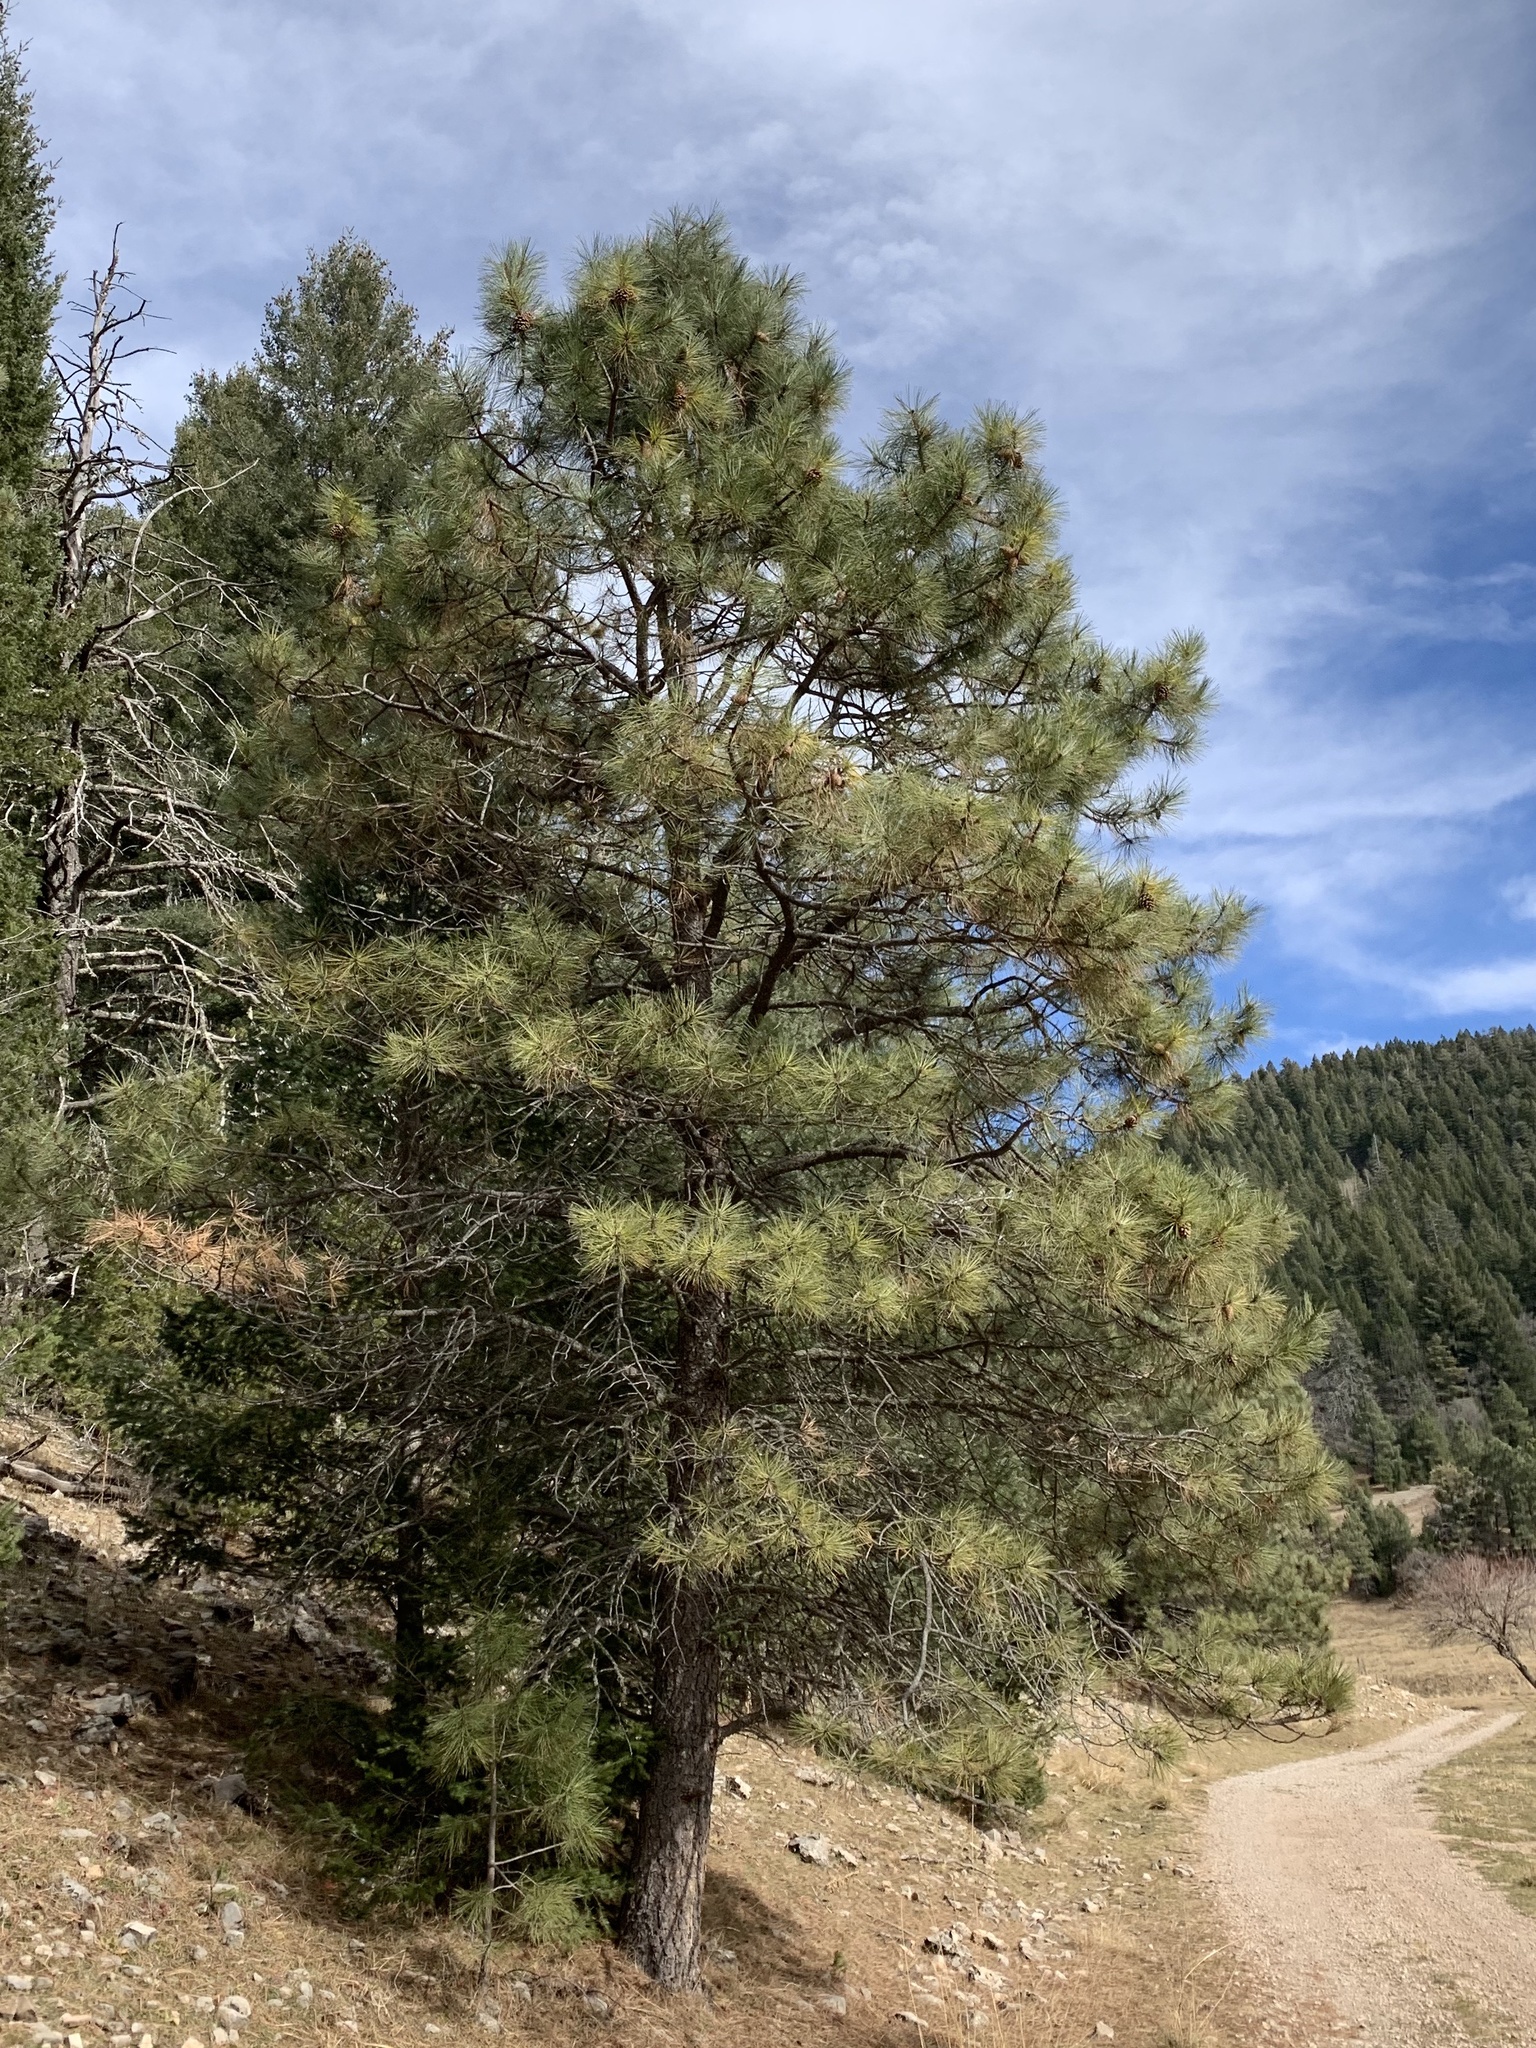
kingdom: Plantae
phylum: Tracheophyta
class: Pinopsida
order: Pinales
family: Pinaceae
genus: Pinus
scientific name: Pinus ponderosa
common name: Western yellow-pine
